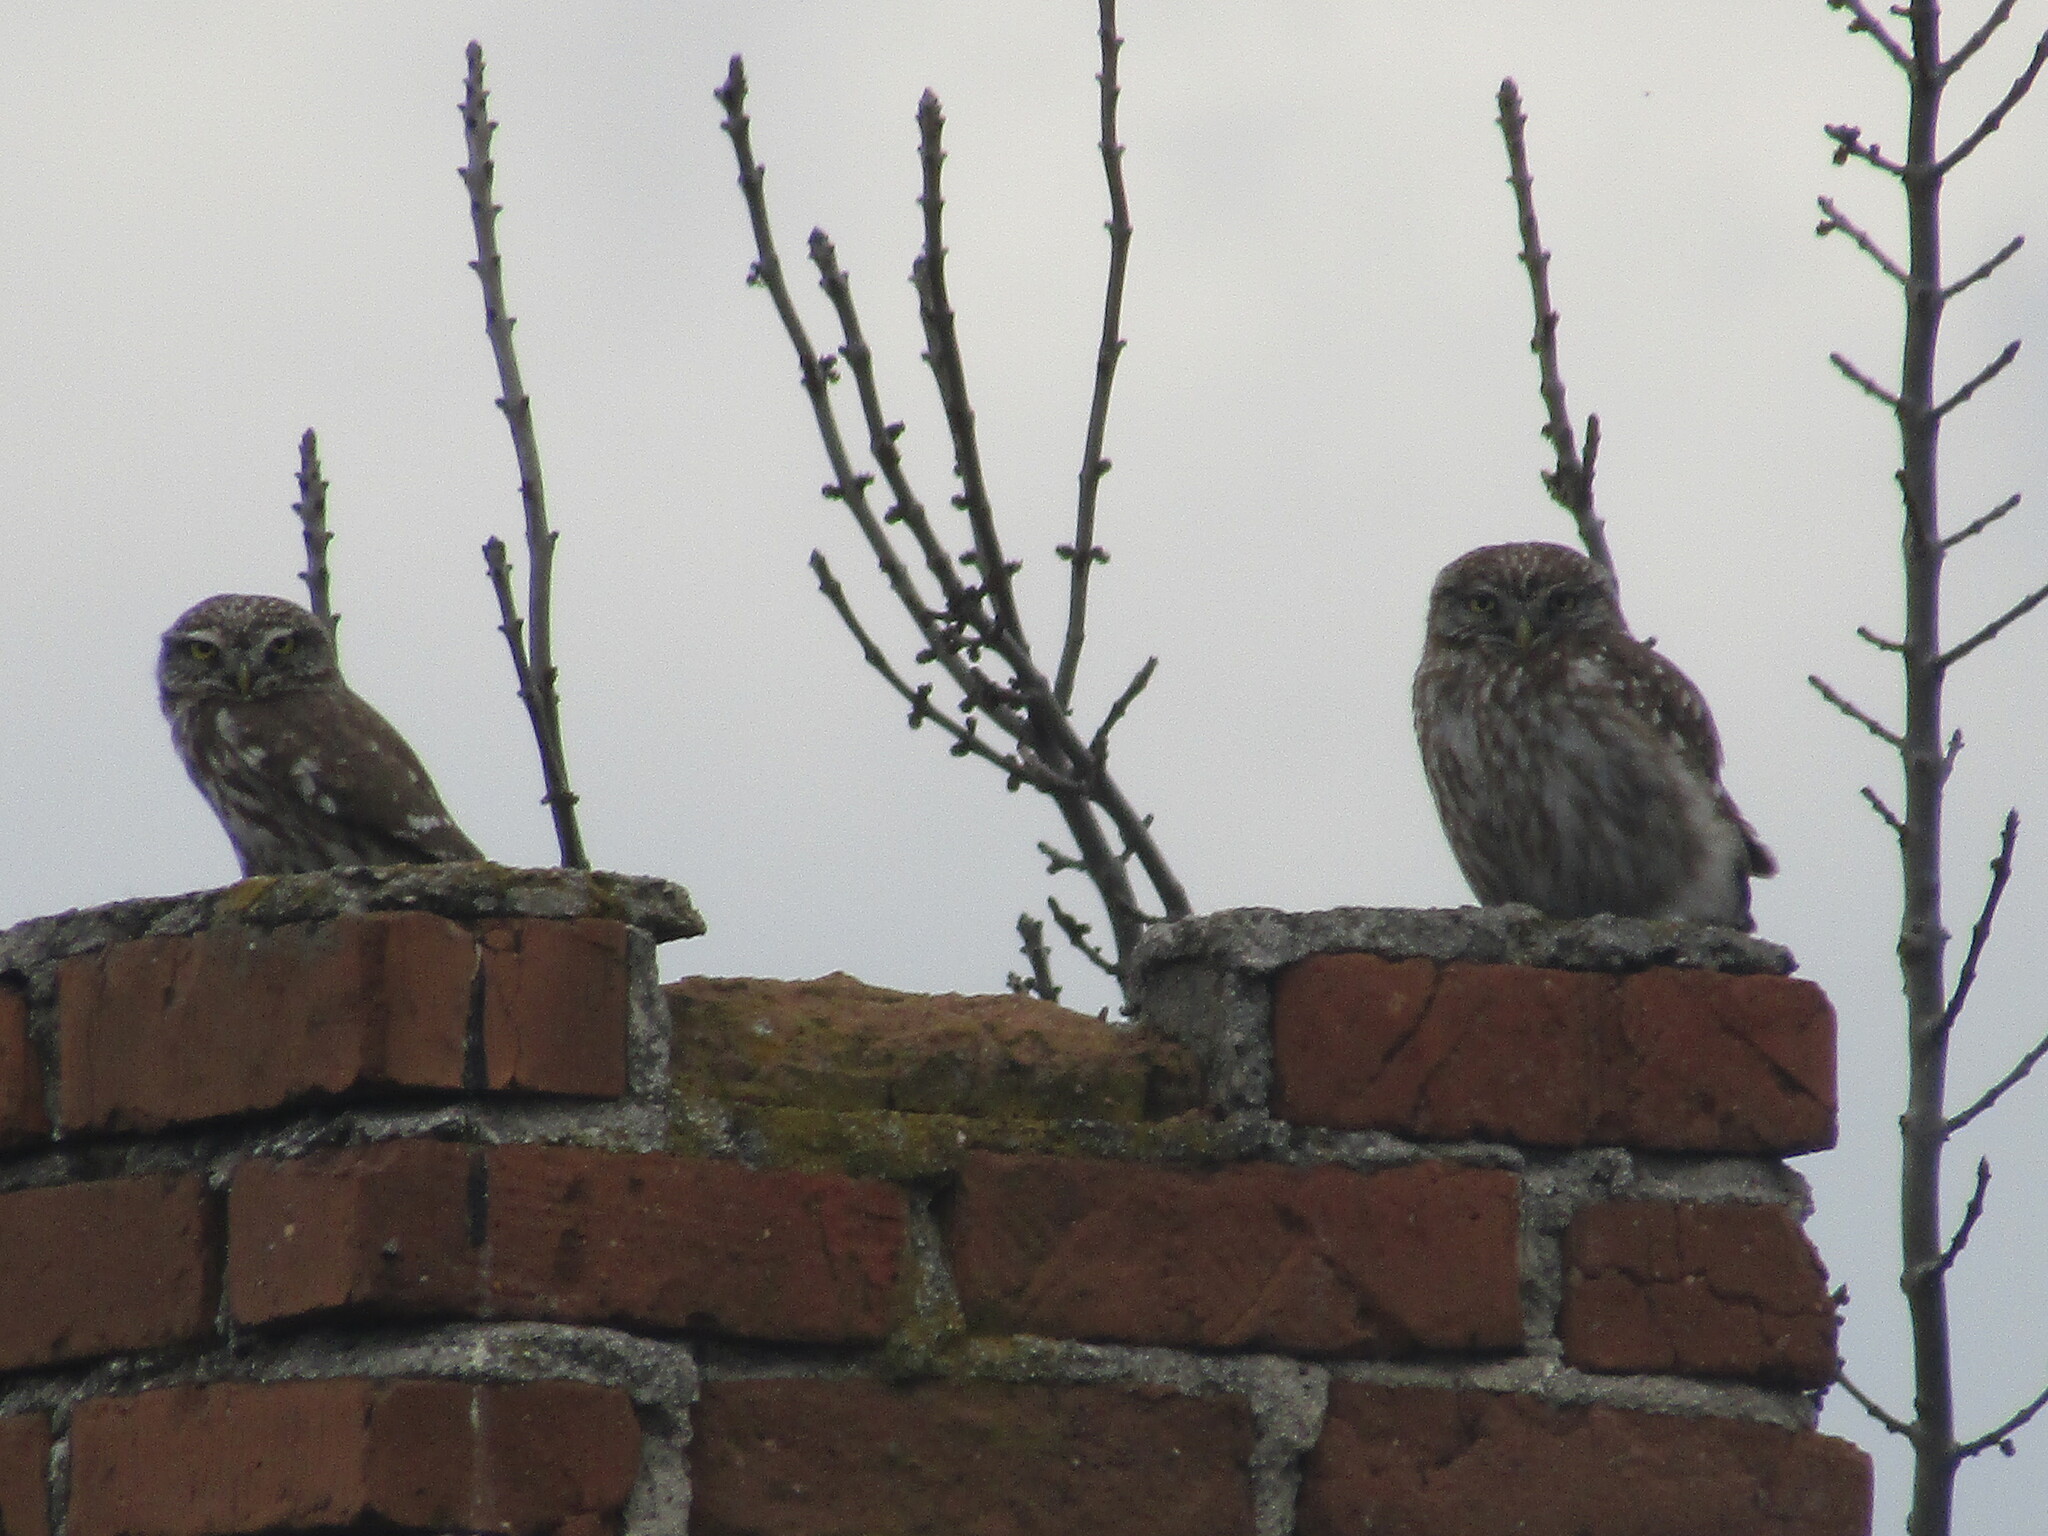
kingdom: Animalia
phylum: Chordata
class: Aves
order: Strigiformes
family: Strigidae
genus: Athene
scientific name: Athene noctua
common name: Little owl
